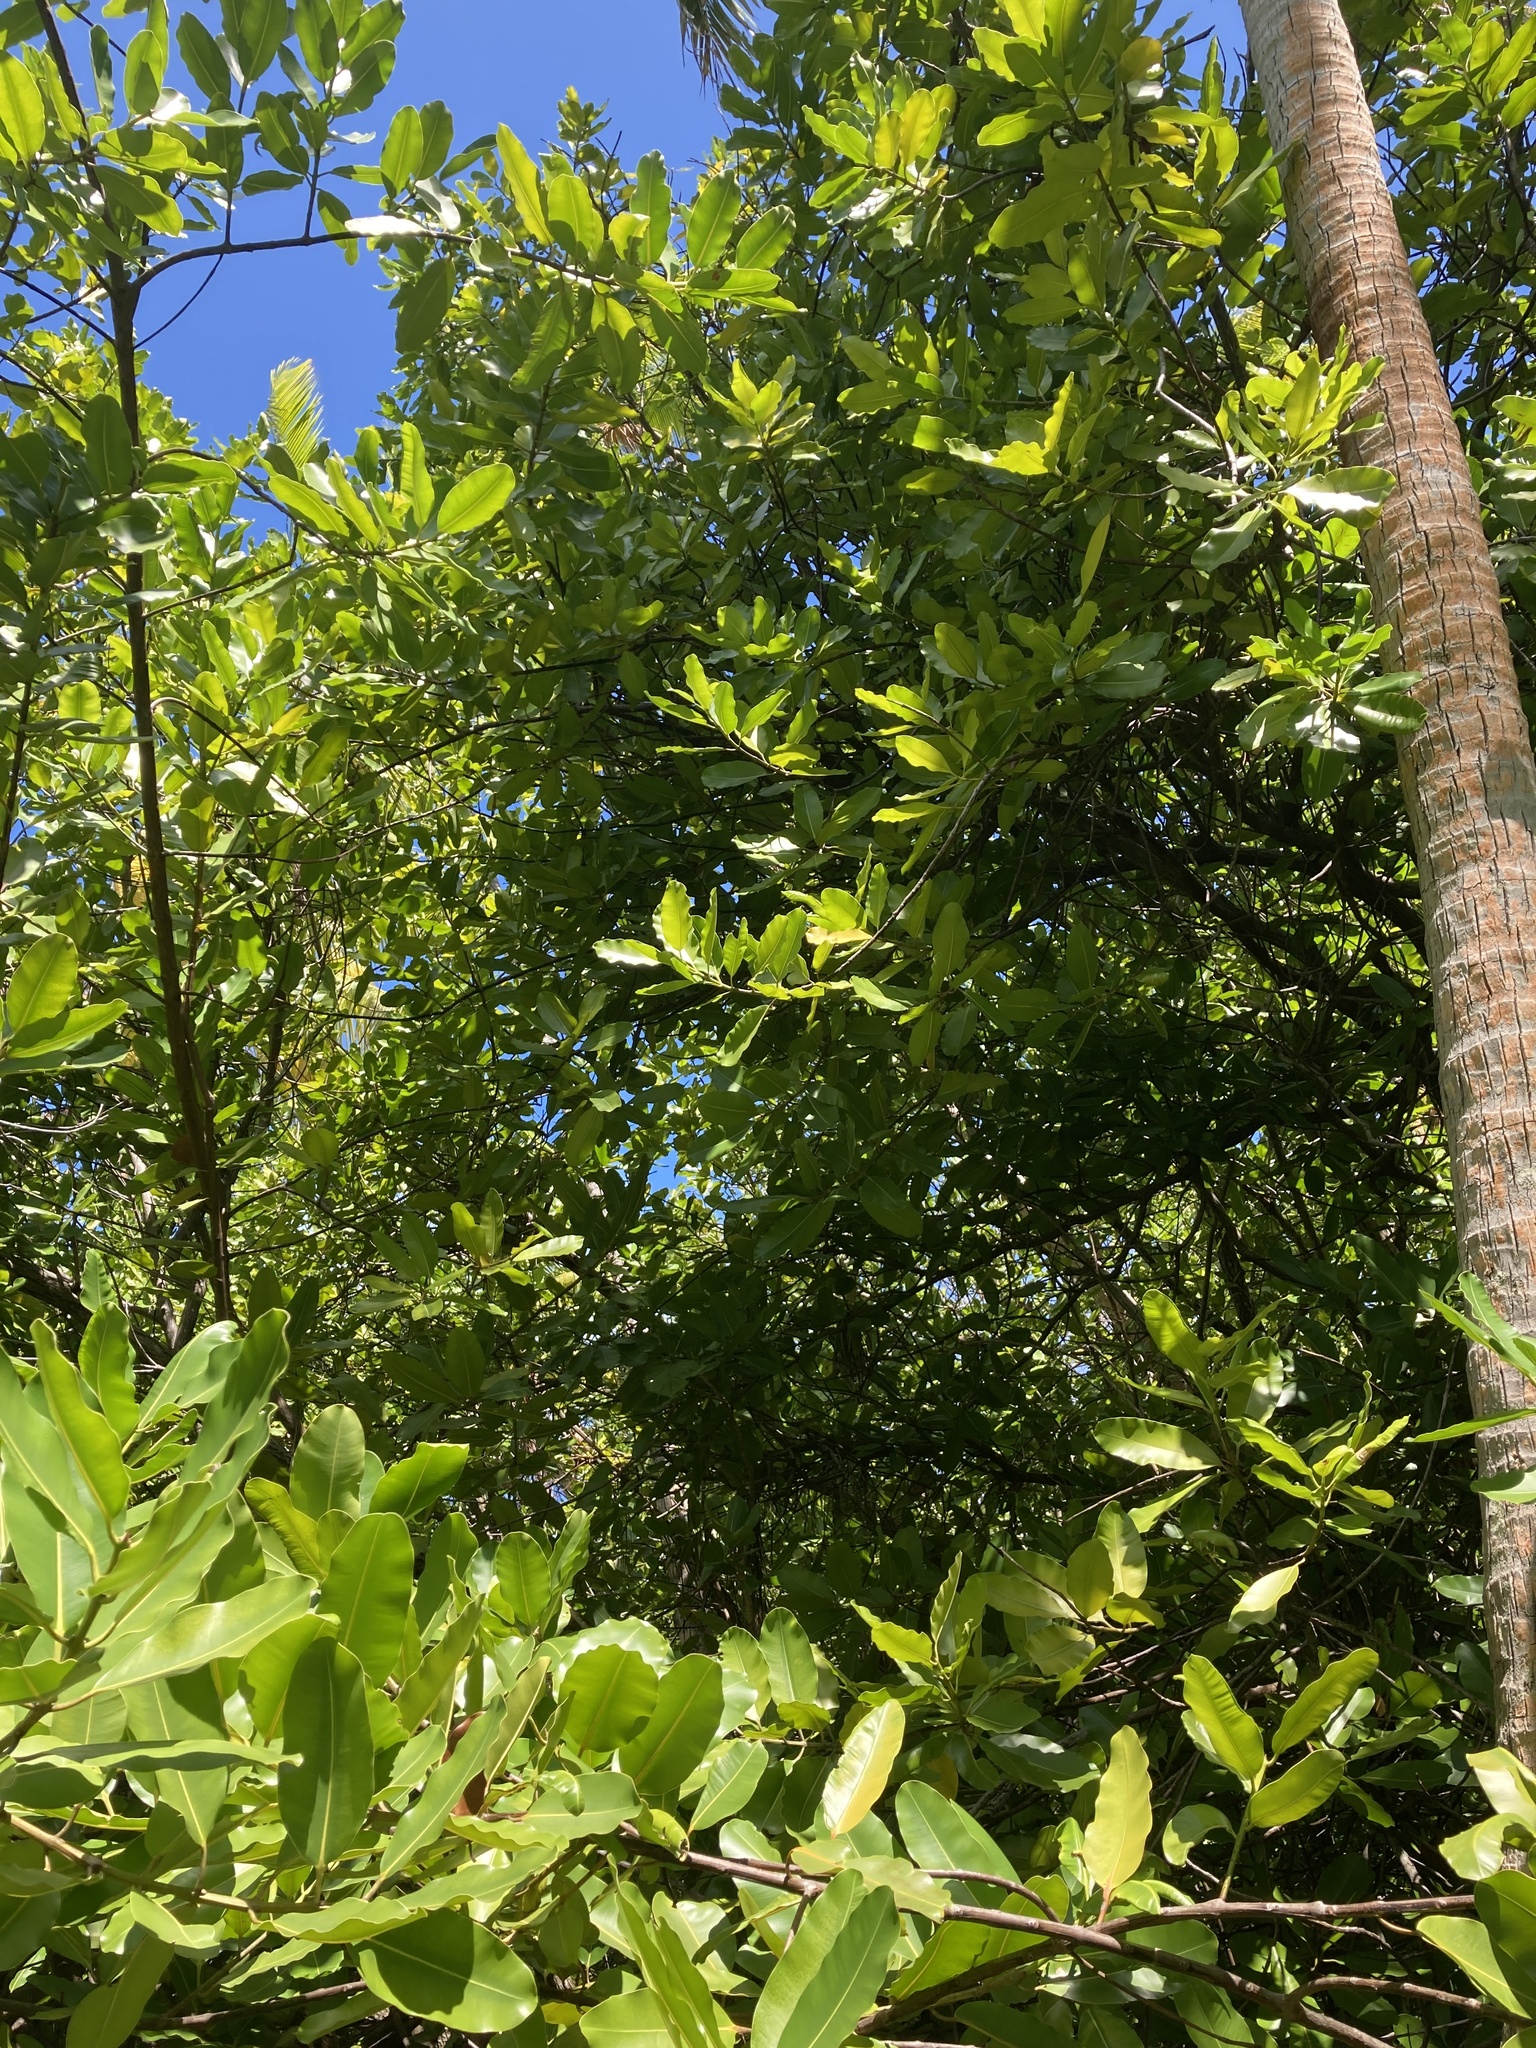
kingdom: Plantae
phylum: Tracheophyta
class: Magnoliopsida
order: Malpighiales
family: Calophyllaceae
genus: Calophyllum
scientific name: Calophyllum inophyllum
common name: Alexandrian laurel
